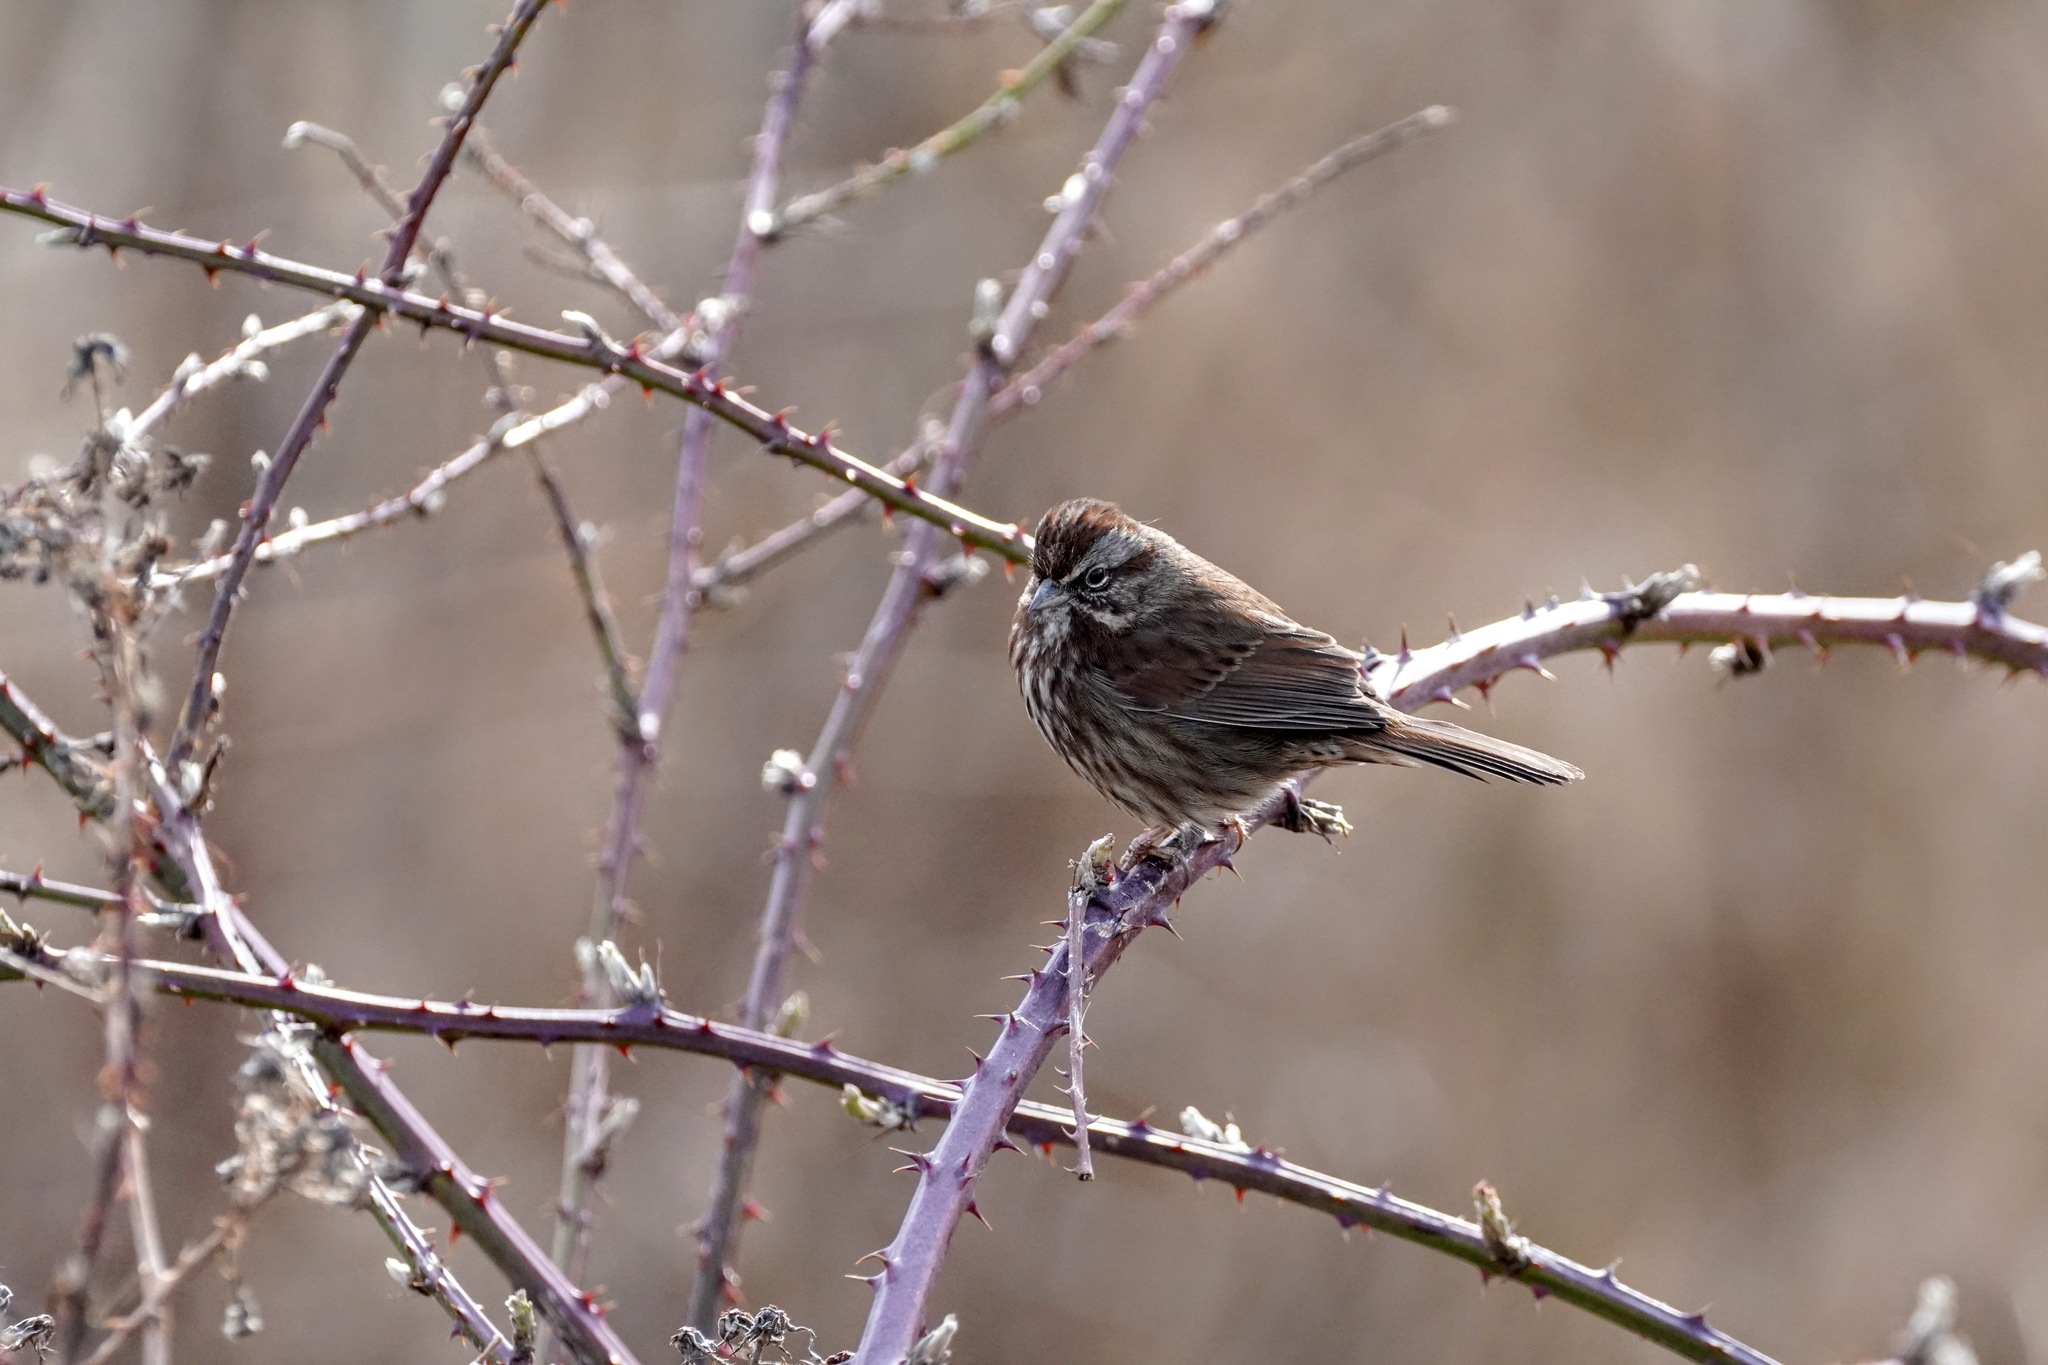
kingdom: Animalia
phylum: Chordata
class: Aves
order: Passeriformes
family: Passerellidae
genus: Melospiza
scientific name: Melospiza melodia
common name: Song sparrow
